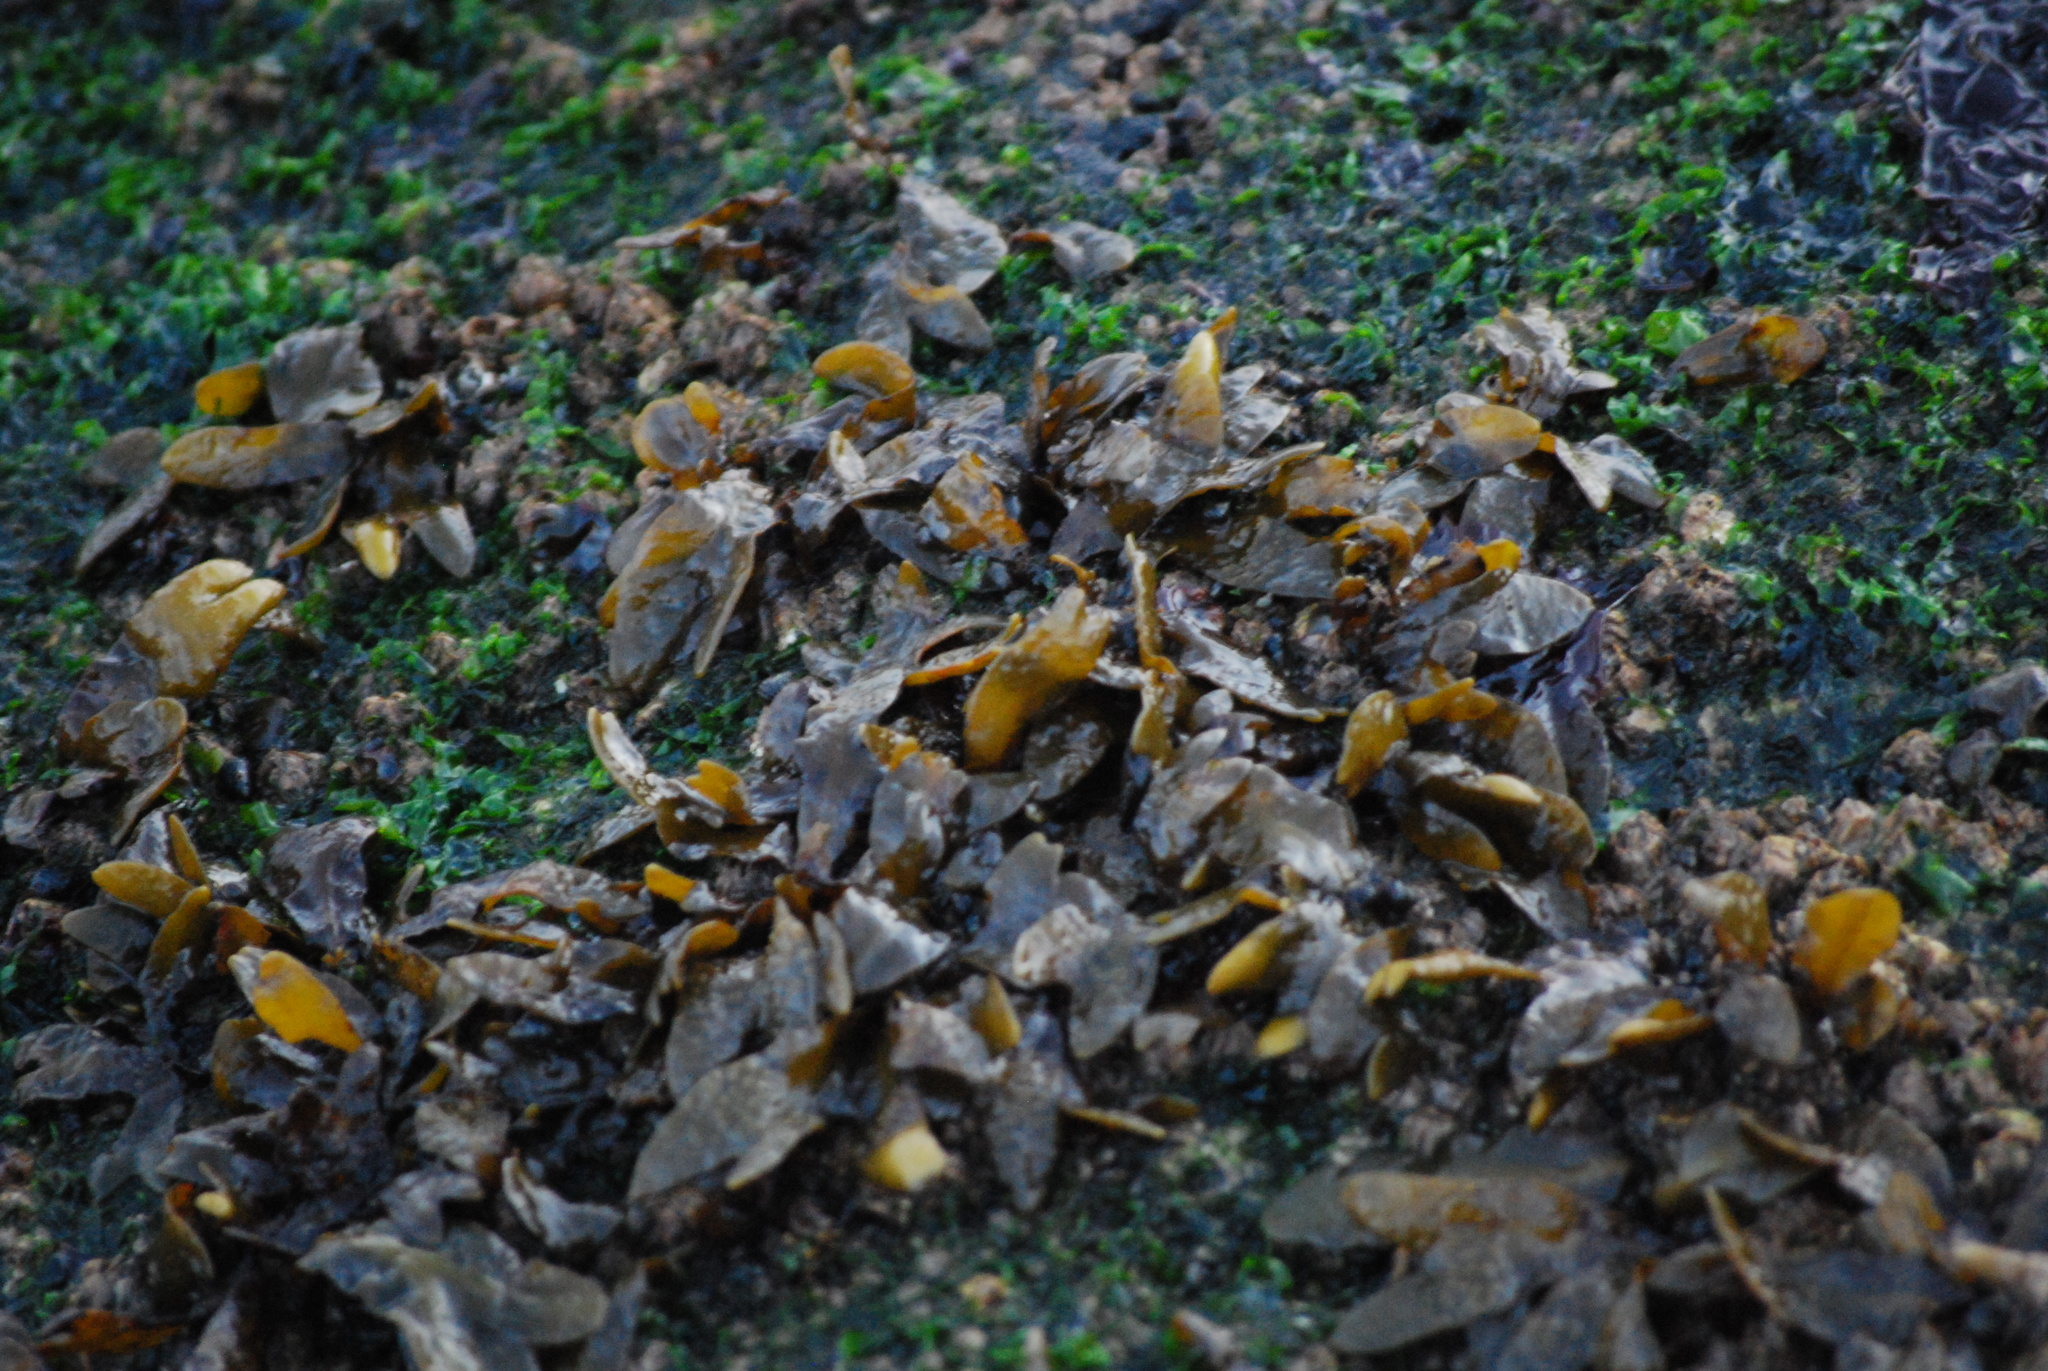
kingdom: Chromista
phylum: Ochrophyta
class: Phaeophyceae
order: Fucales
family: Fucaceae
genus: Fucus
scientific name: Fucus distichus
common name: Rockweed
